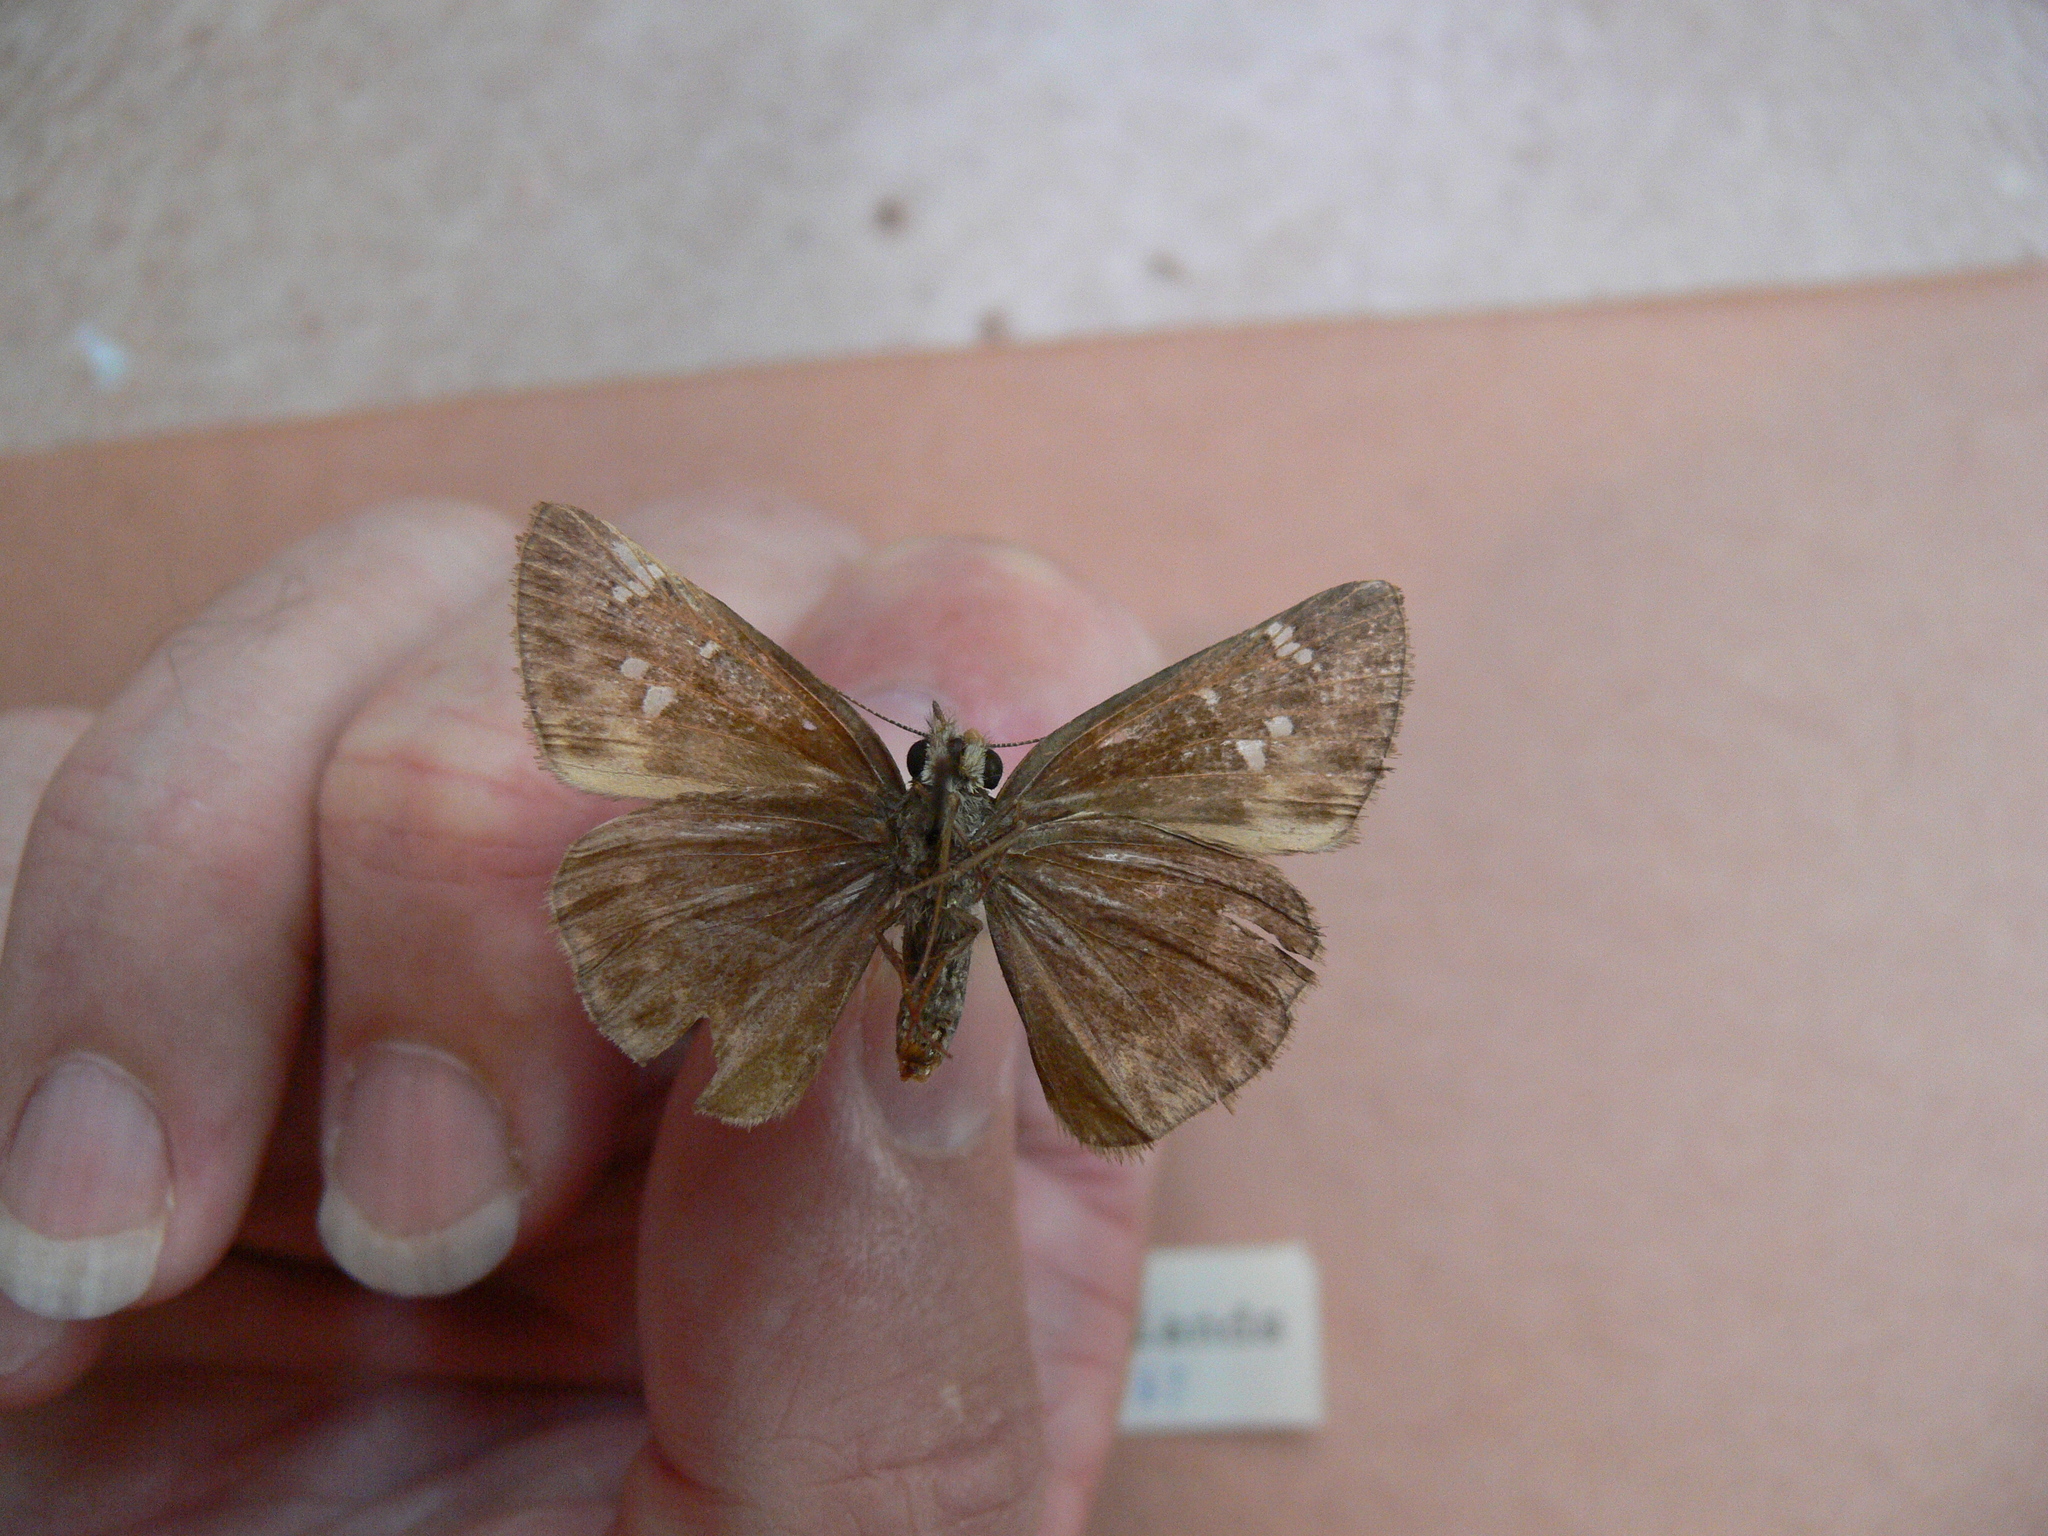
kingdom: Animalia
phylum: Arthropoda
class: Insecta
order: Lepidoptera
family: Hesperiidae
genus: Erynnis
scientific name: Erynnis horatius
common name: Horace's duskywing
